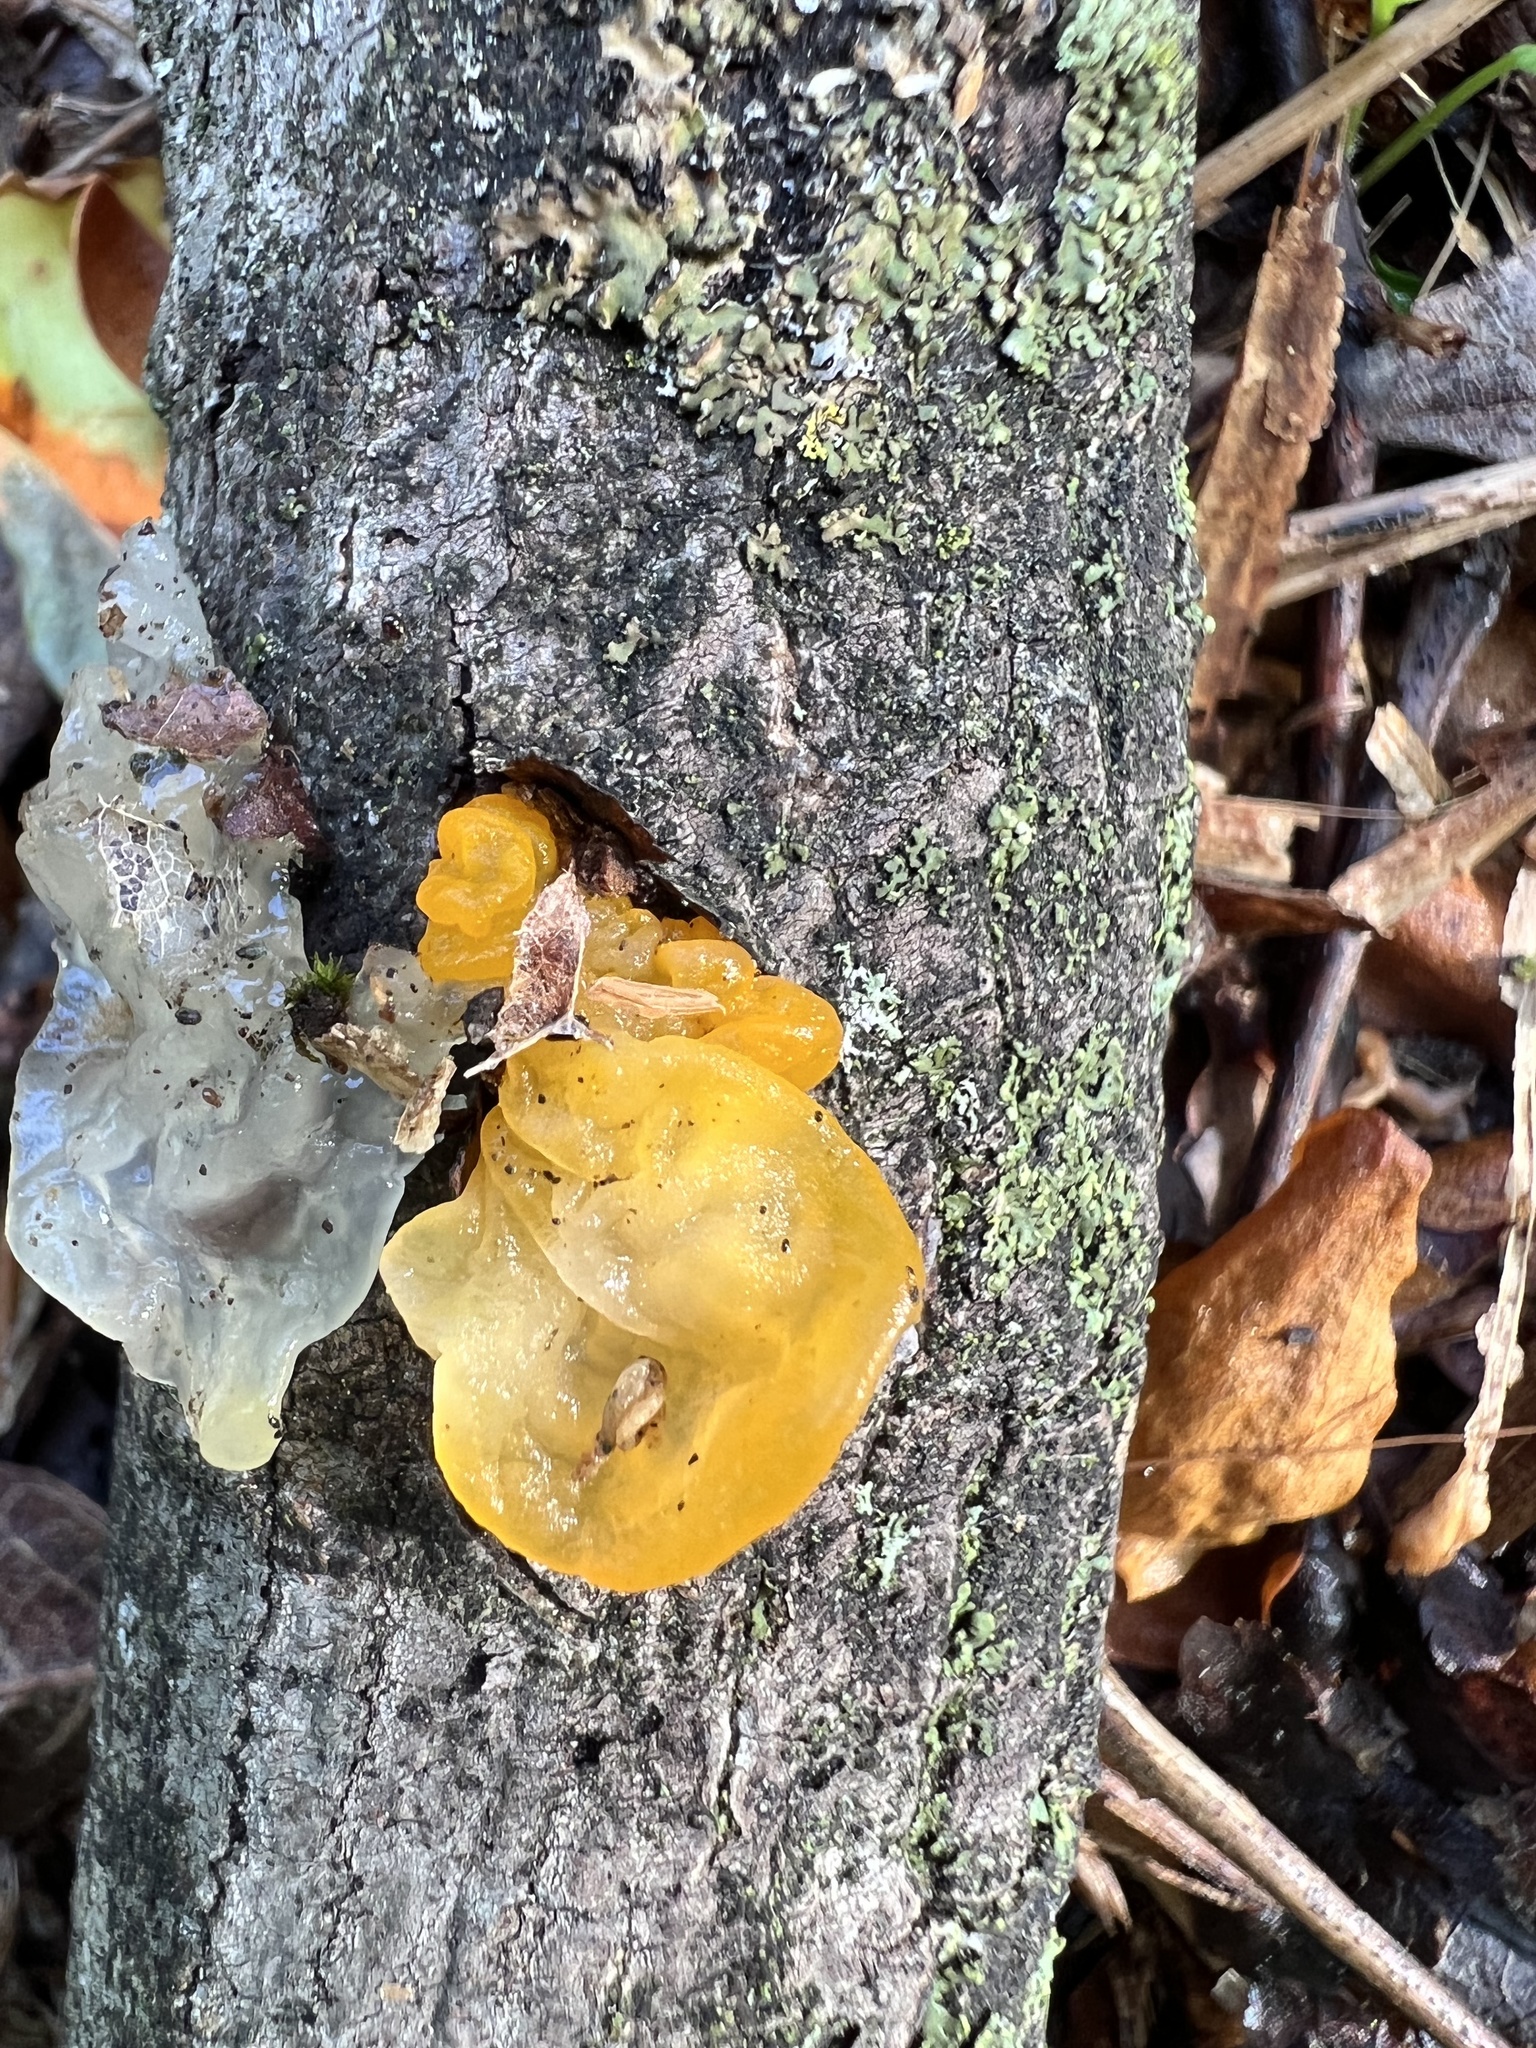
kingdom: Fungi
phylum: Basidiomycota
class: Tremellomycetes
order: Tremellales
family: Tremellaceae
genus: Tremella
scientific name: Tremella mesenterica
